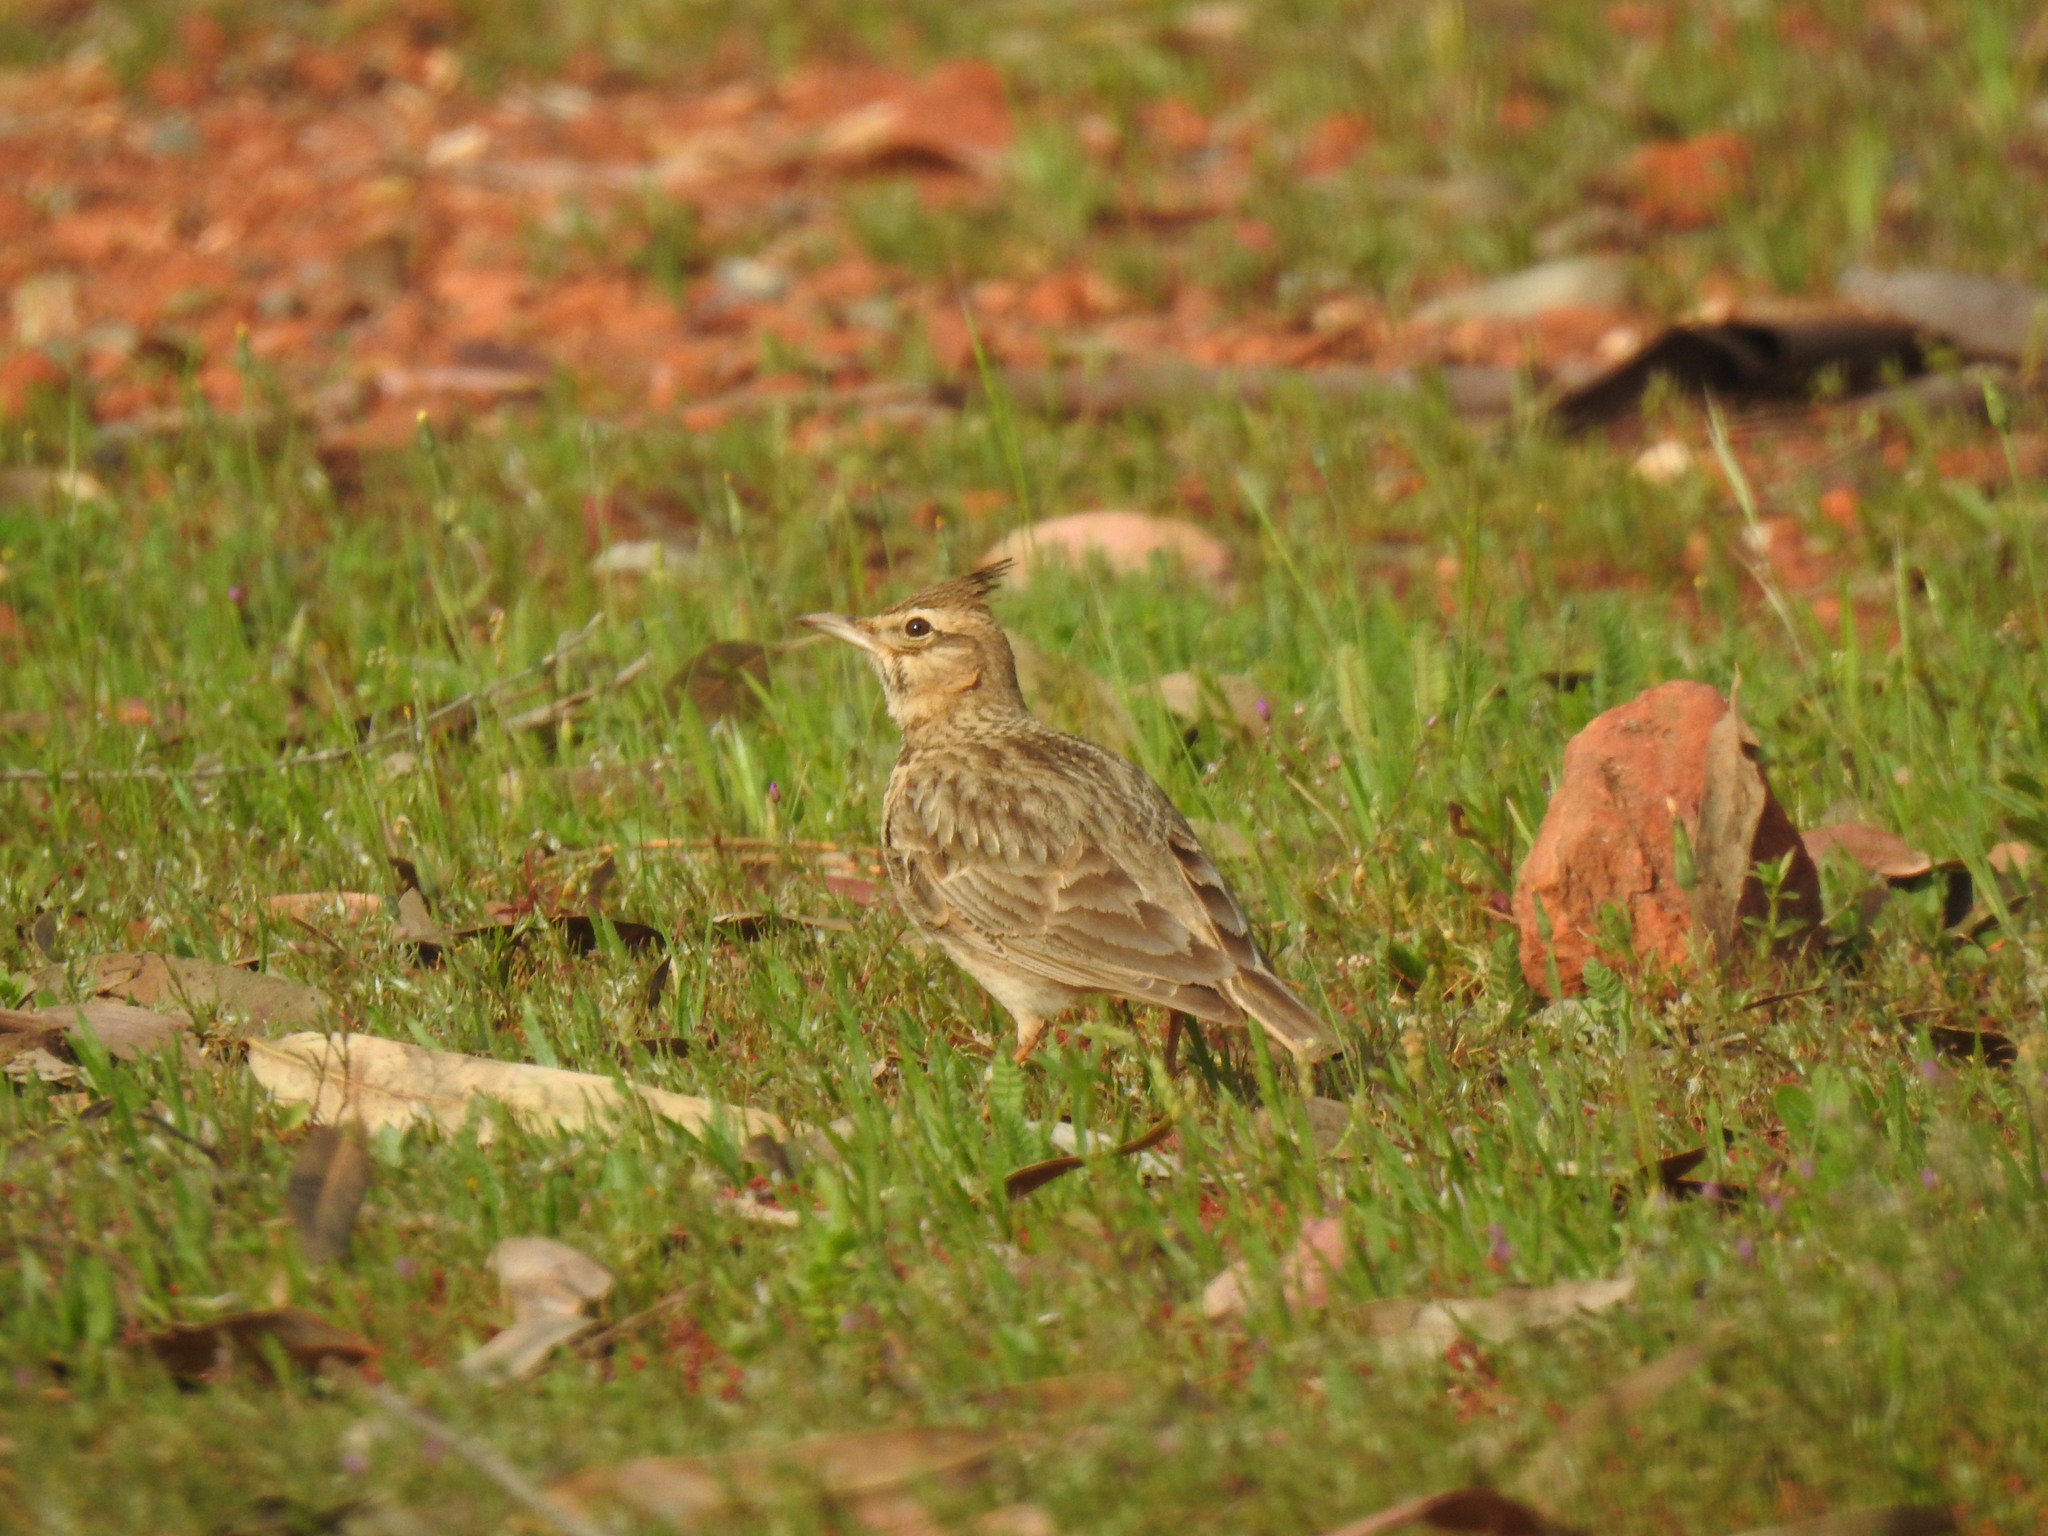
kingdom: Animalia
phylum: Chordata
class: Aves
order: Passeriformes
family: Alaudidae
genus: Galerida
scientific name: Galerida cristata
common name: Crested lark
